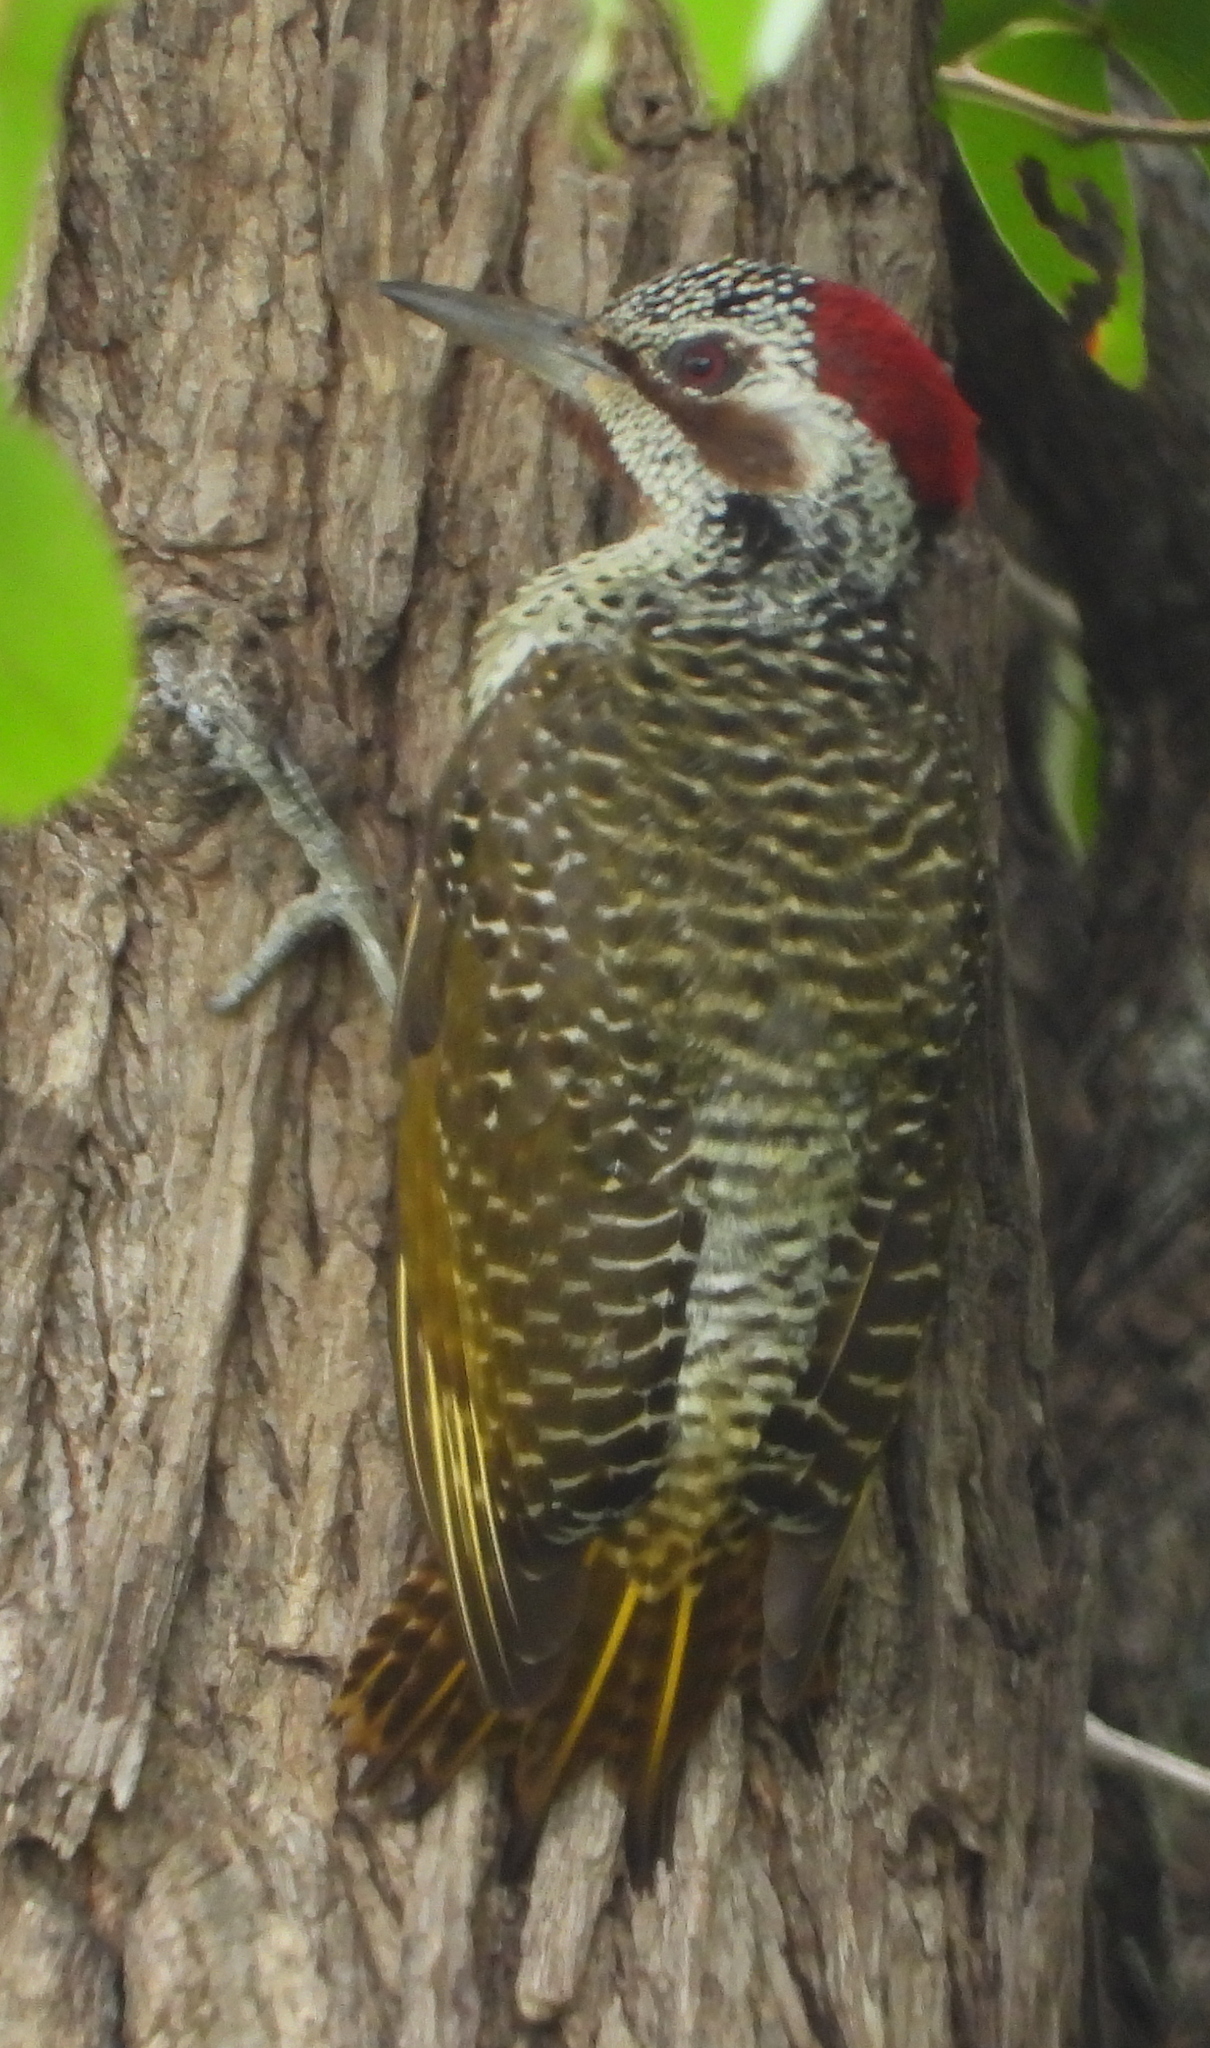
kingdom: Animalia
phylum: Chordata
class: Aves
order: Piciformes
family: Picidae
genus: Campethera
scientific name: Campethera bennettii
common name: Bennett's woodpecker
